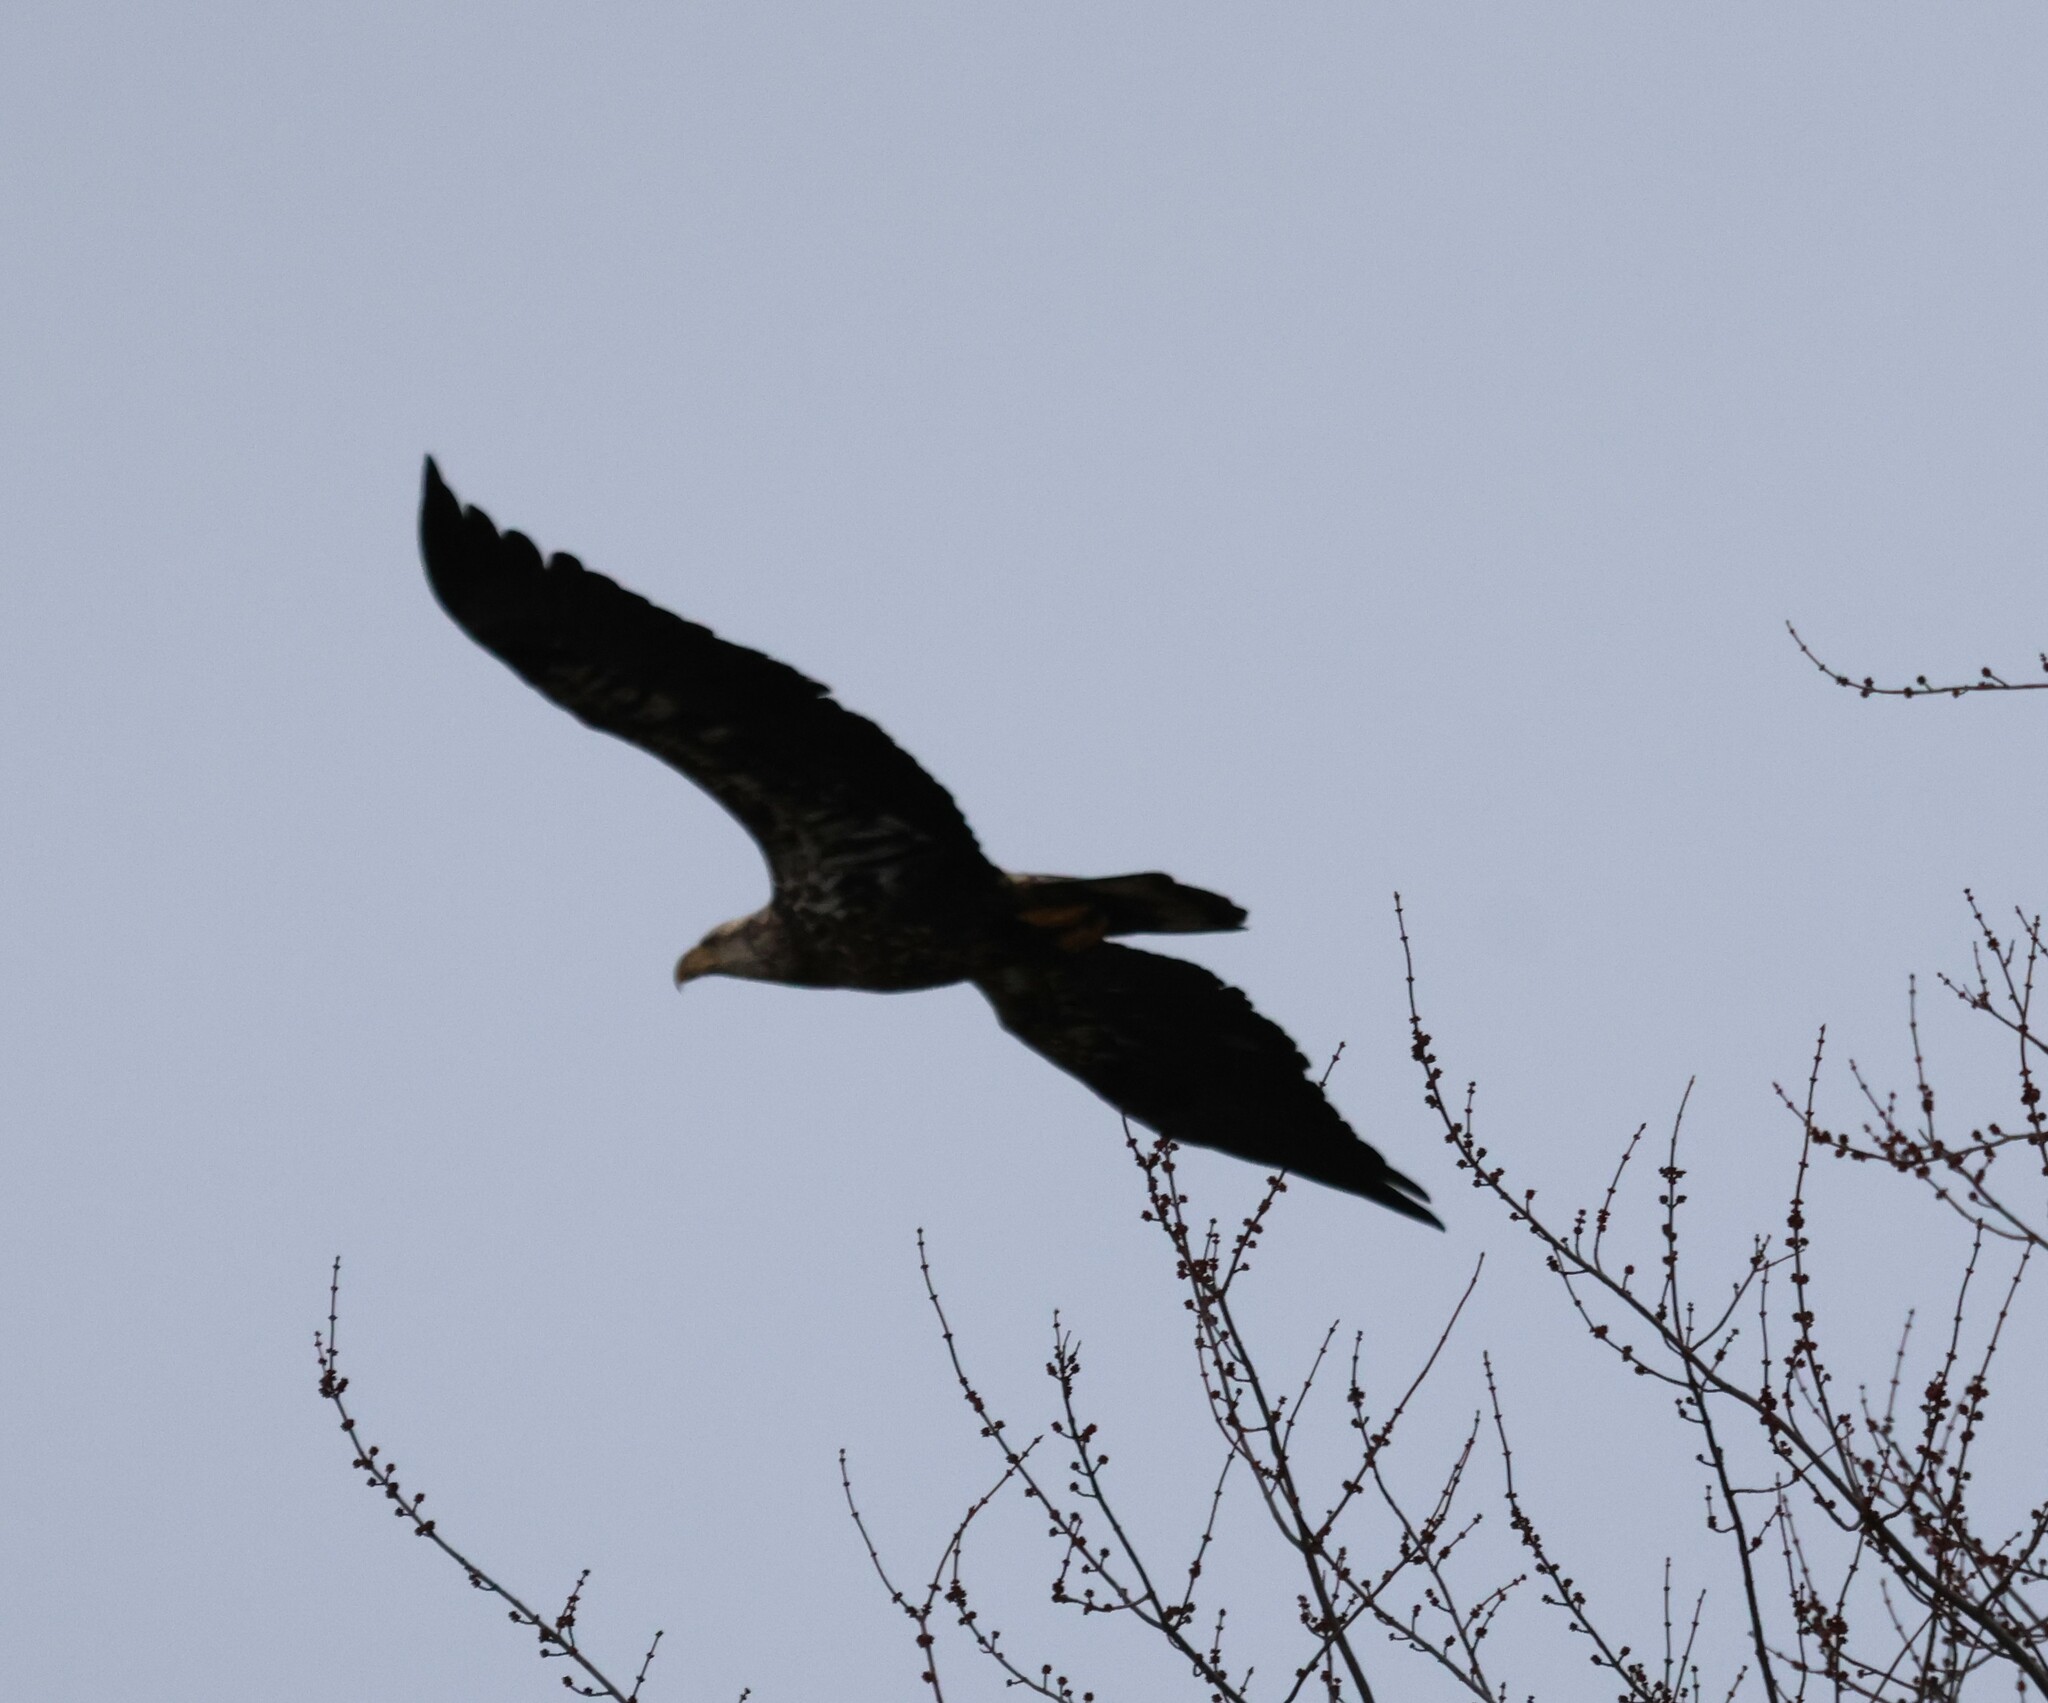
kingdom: Animalia
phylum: Chordata
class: Aves
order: Accipitriformes
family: Accipitridae
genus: Haliaeetus
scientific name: Haliaeetus leucocephalus
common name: Bald eagle
